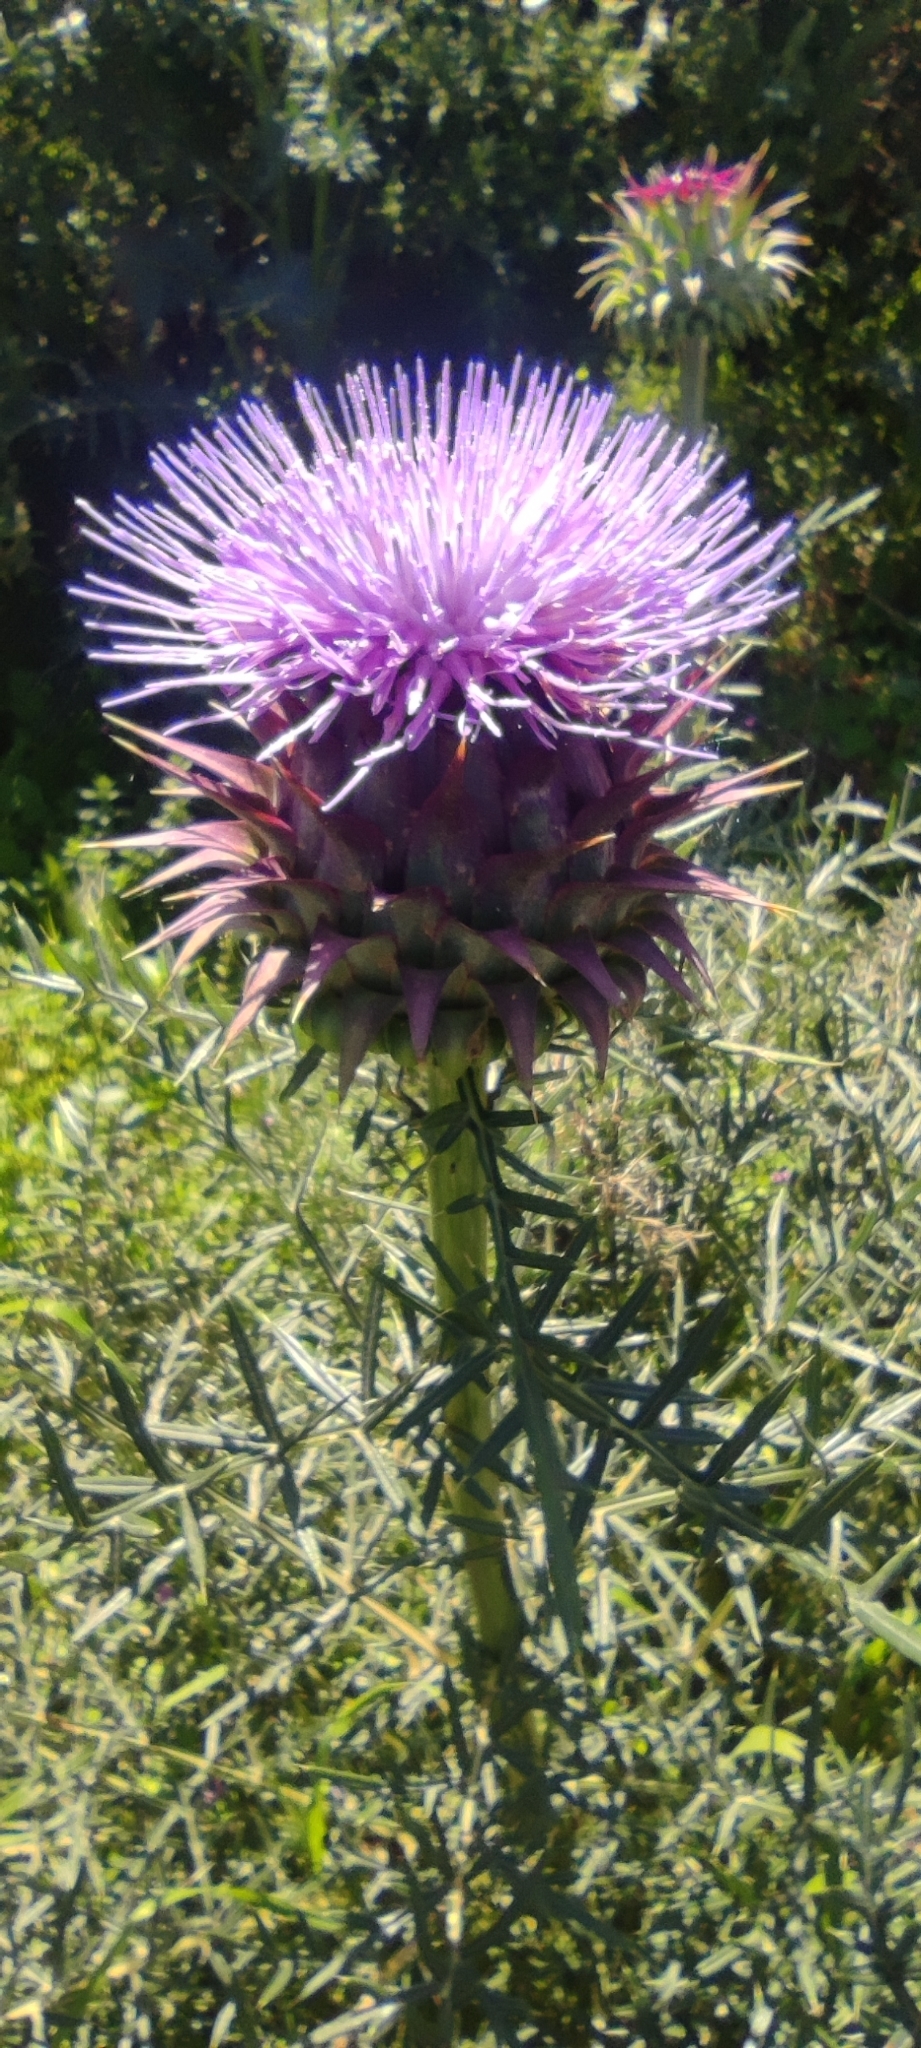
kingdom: Plantae
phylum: Tracheophyta
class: Magnoliopsida
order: Asterales
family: Asteraceae
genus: Cynara
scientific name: Cynara humilis
